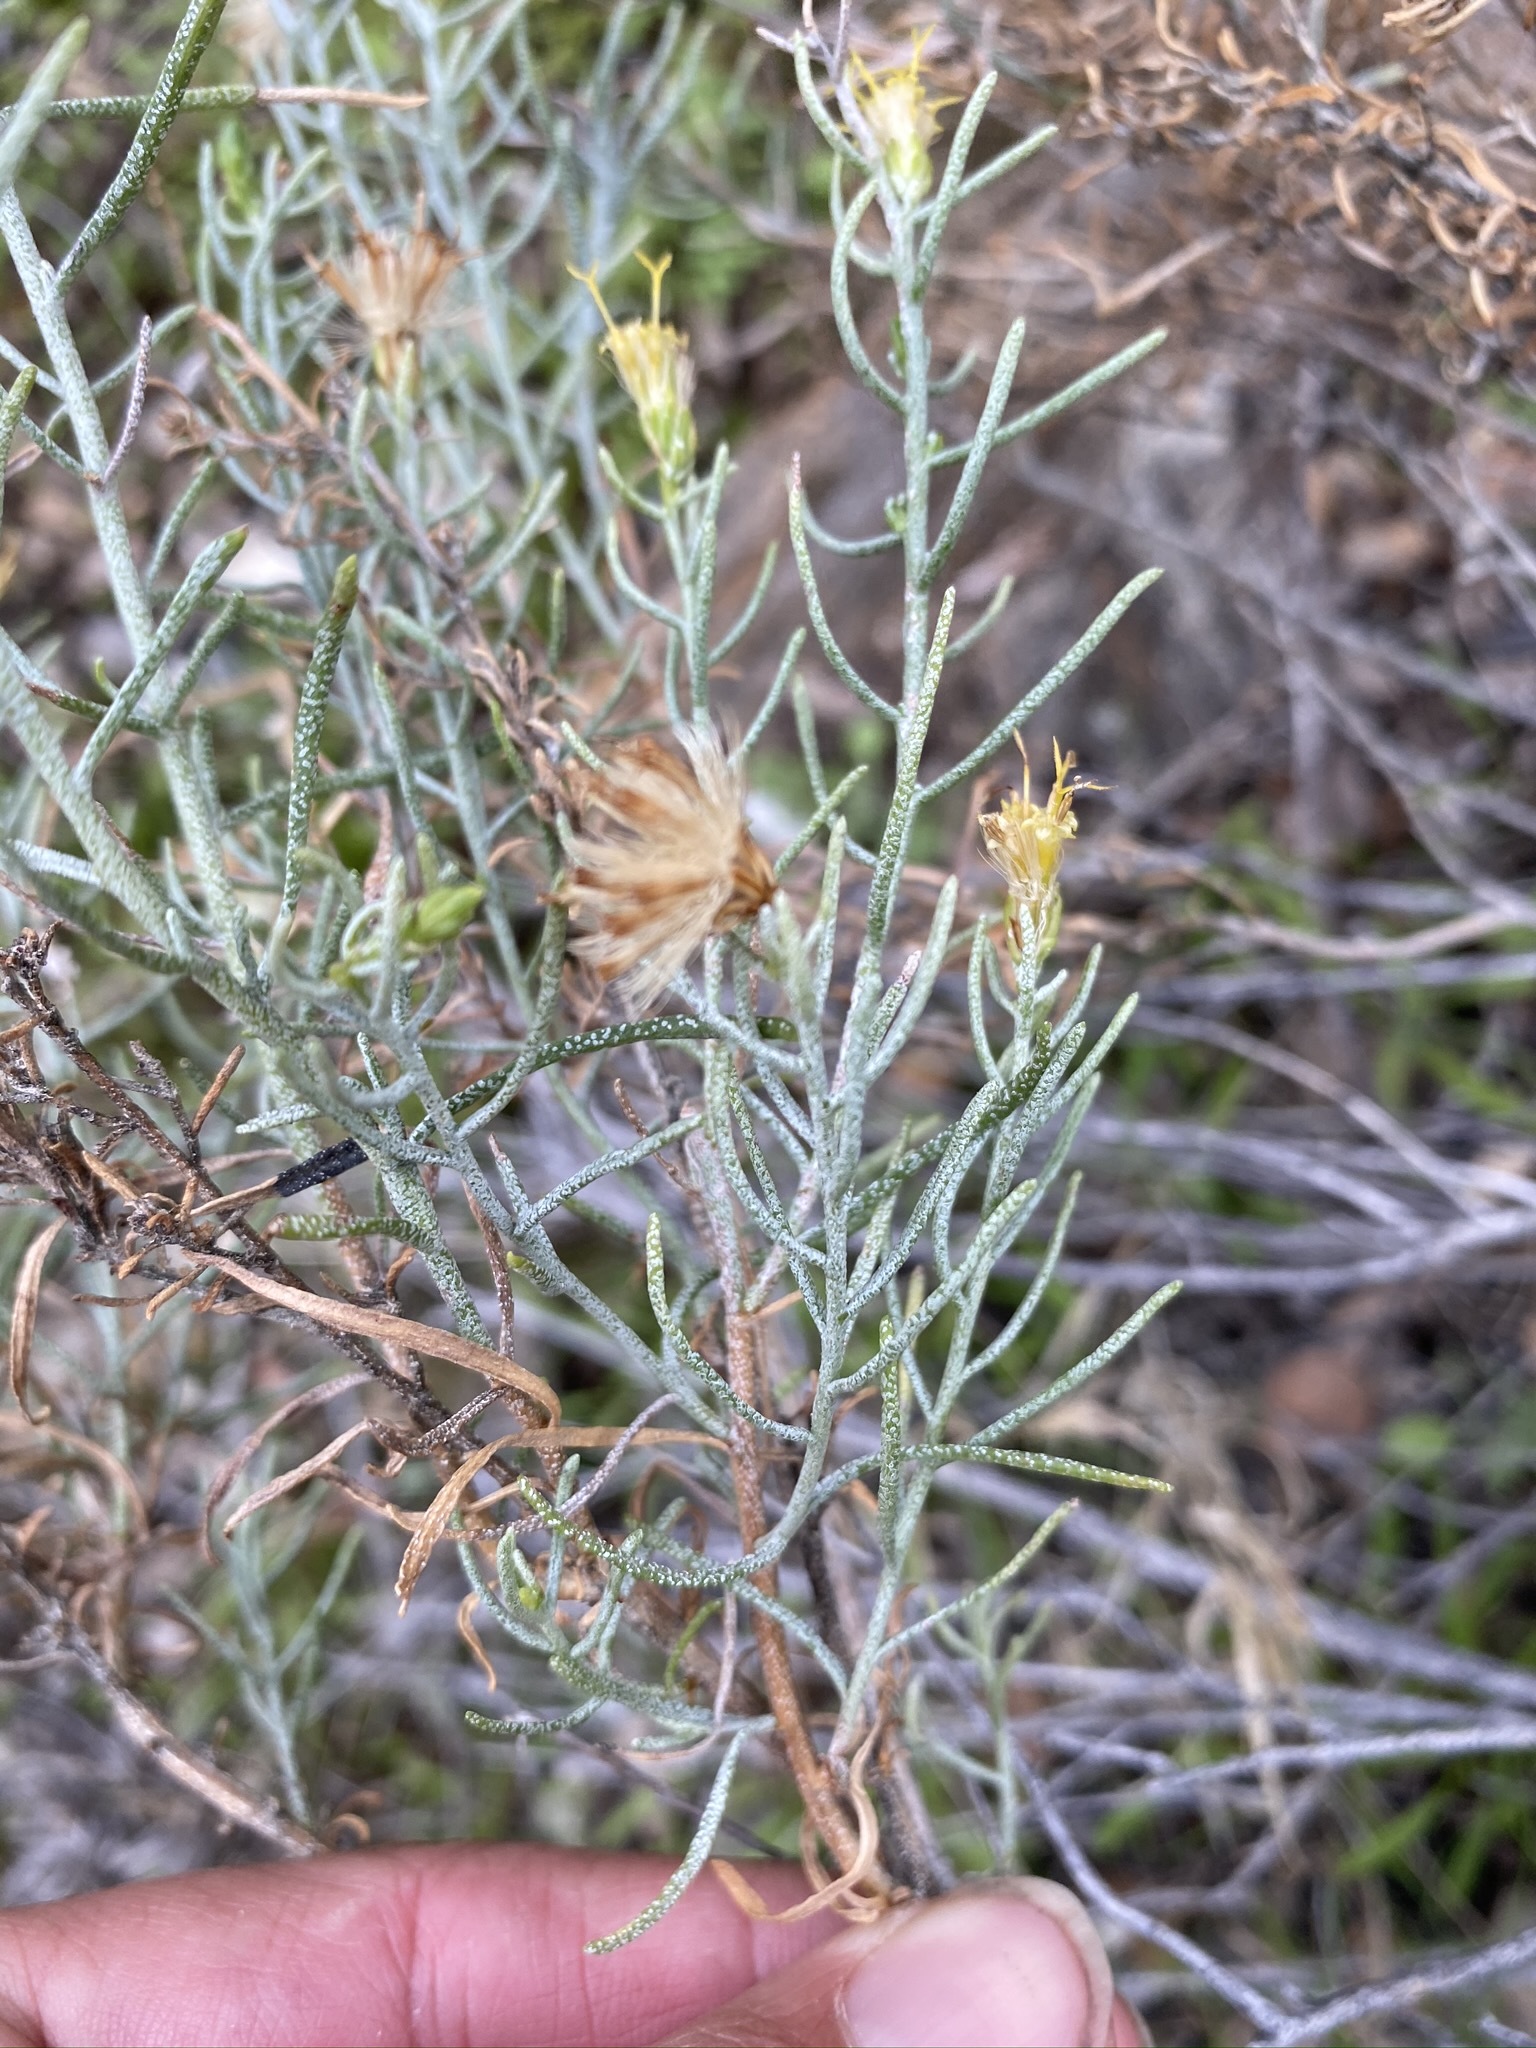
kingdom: Plantae
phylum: Tracheophyta
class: Magnoliopsida
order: Asterales
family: Asteraceae
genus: Ericameria
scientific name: Ericameria brachylepis
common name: Boundary goldenbush
